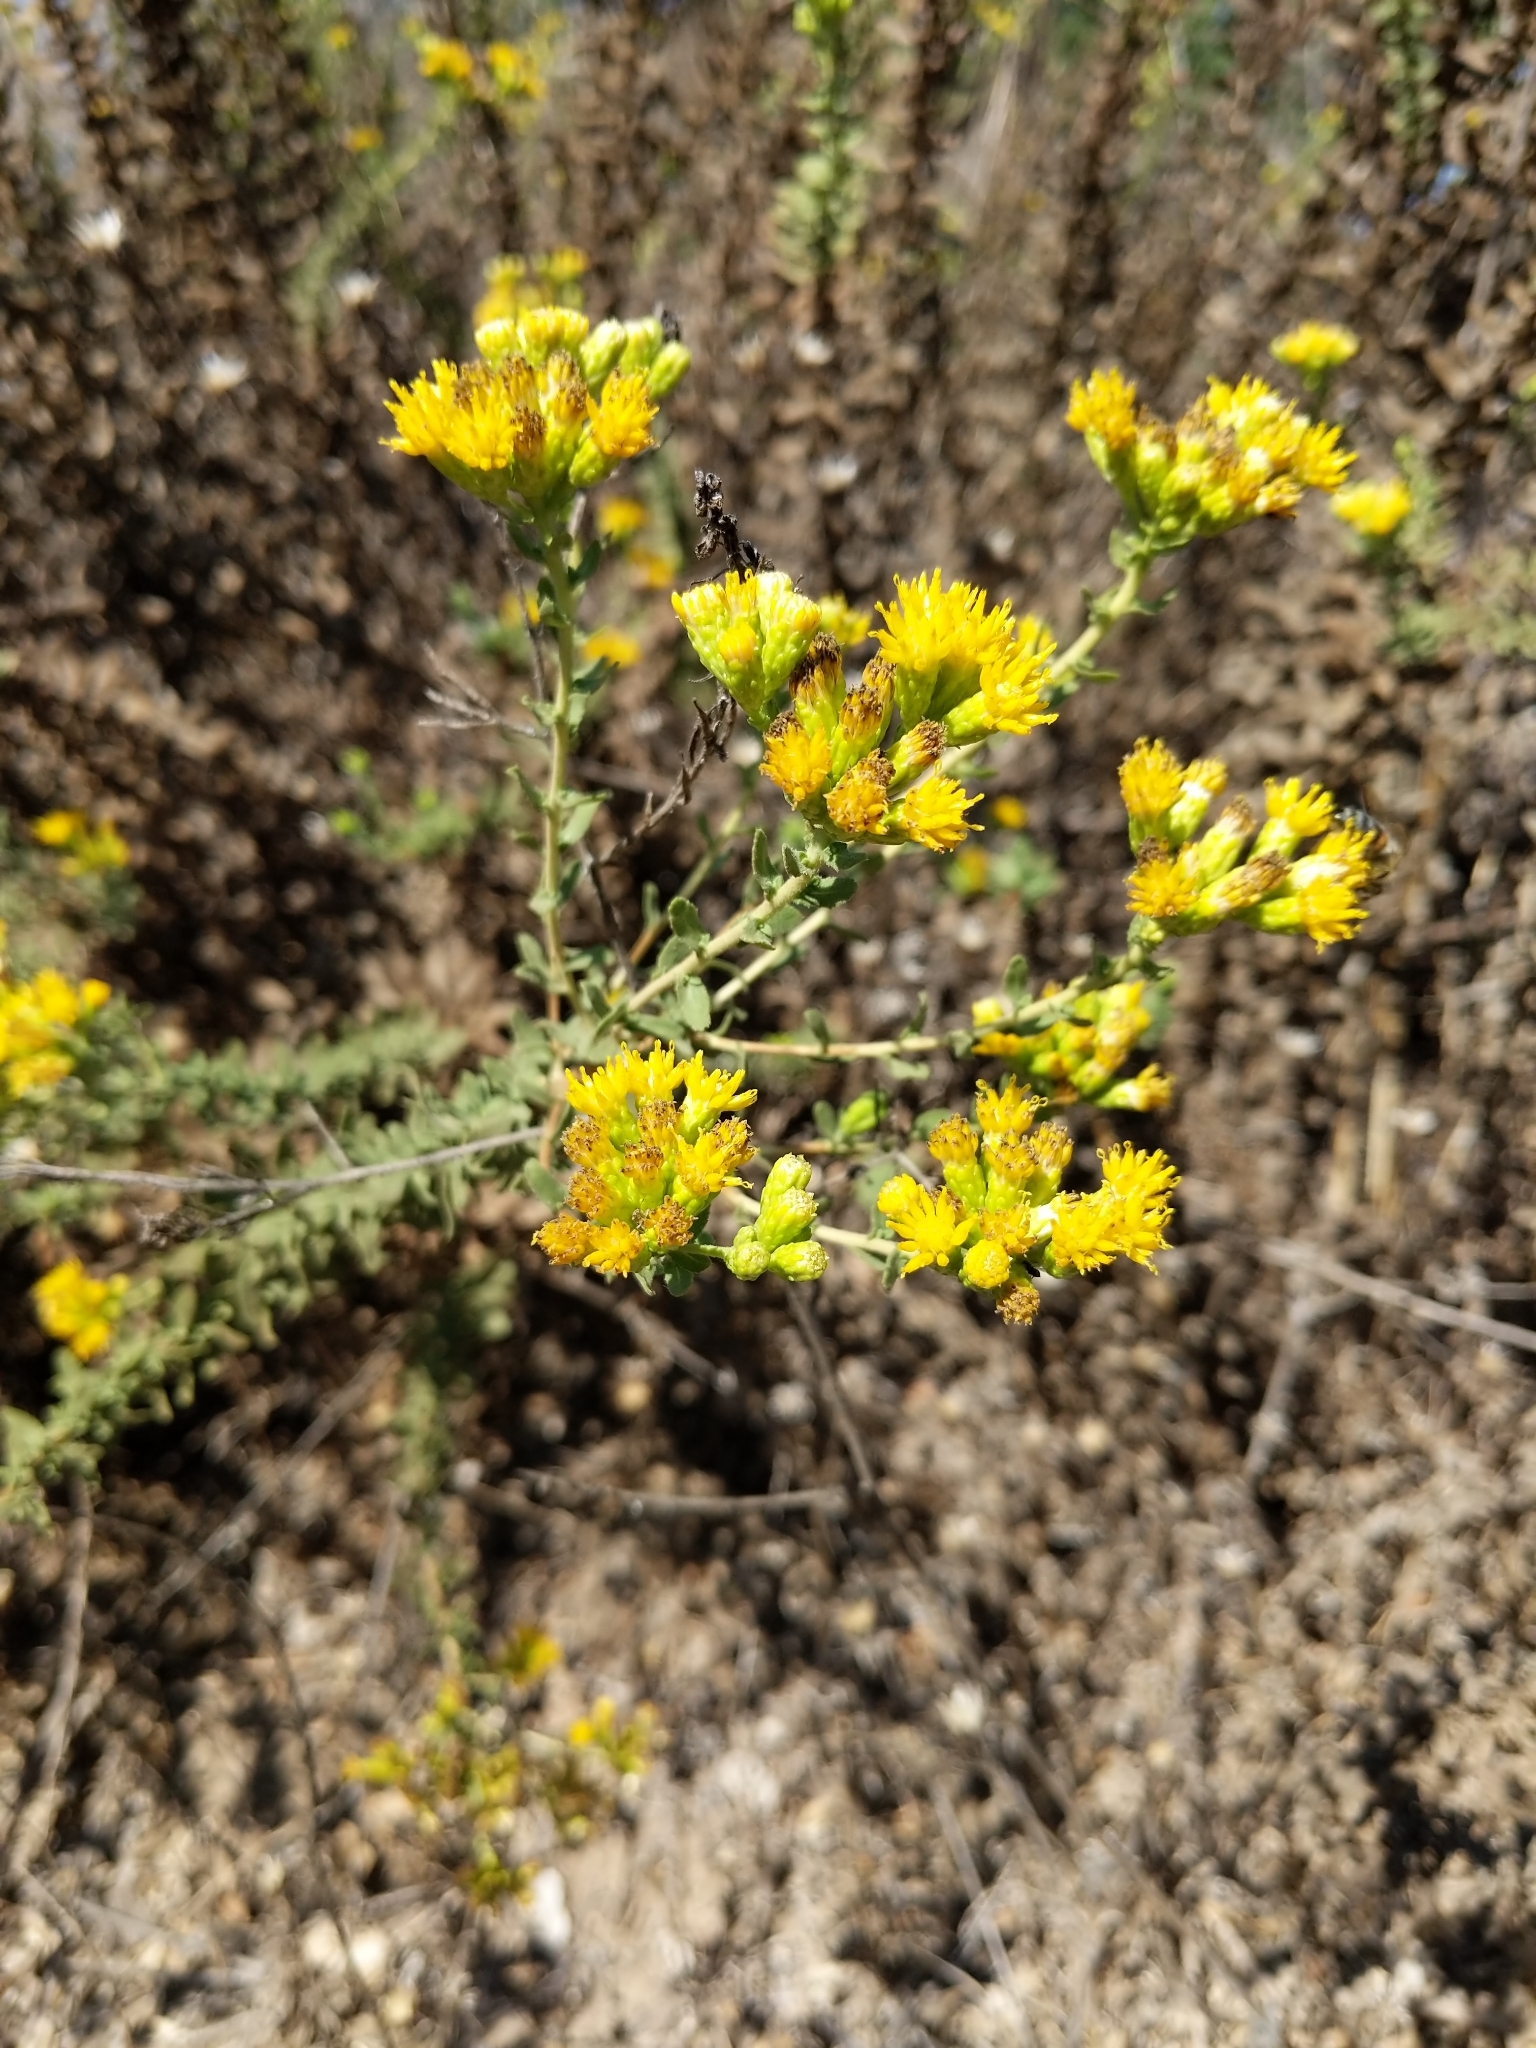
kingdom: Plantae
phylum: Tracheophyta
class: Magnoliopsida
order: Asterales
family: Asteraceae
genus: Isocoma
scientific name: Isocoma menziesii
